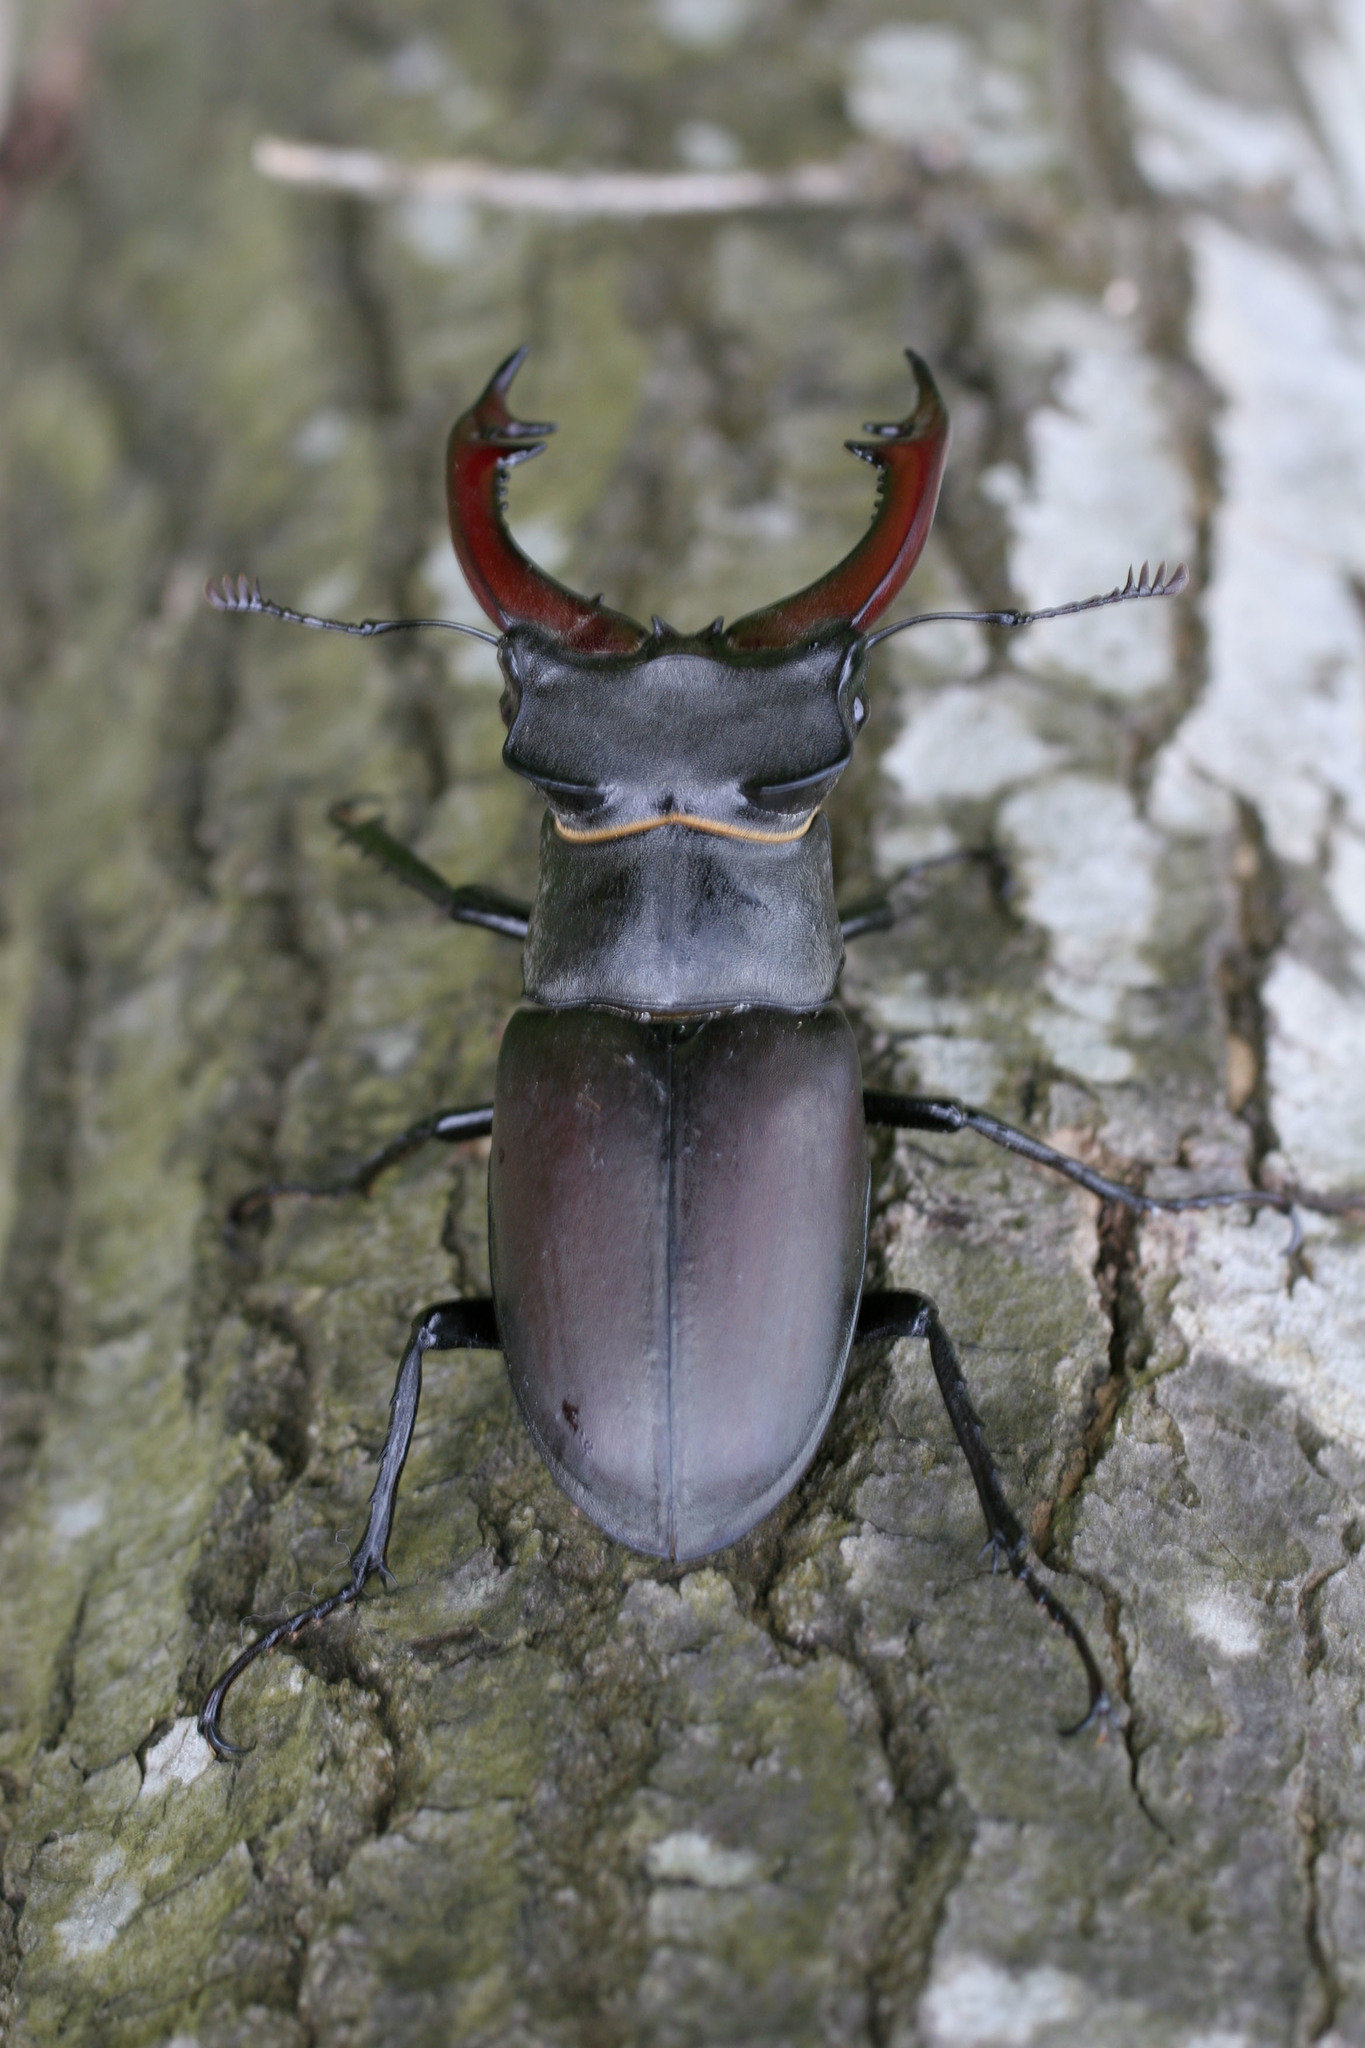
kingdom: Animalia
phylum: Arthropoda
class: Insecta
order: Coleoptera
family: Lucanidae
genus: Lucanus
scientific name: Lucanus cervus
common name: Stag beetle
